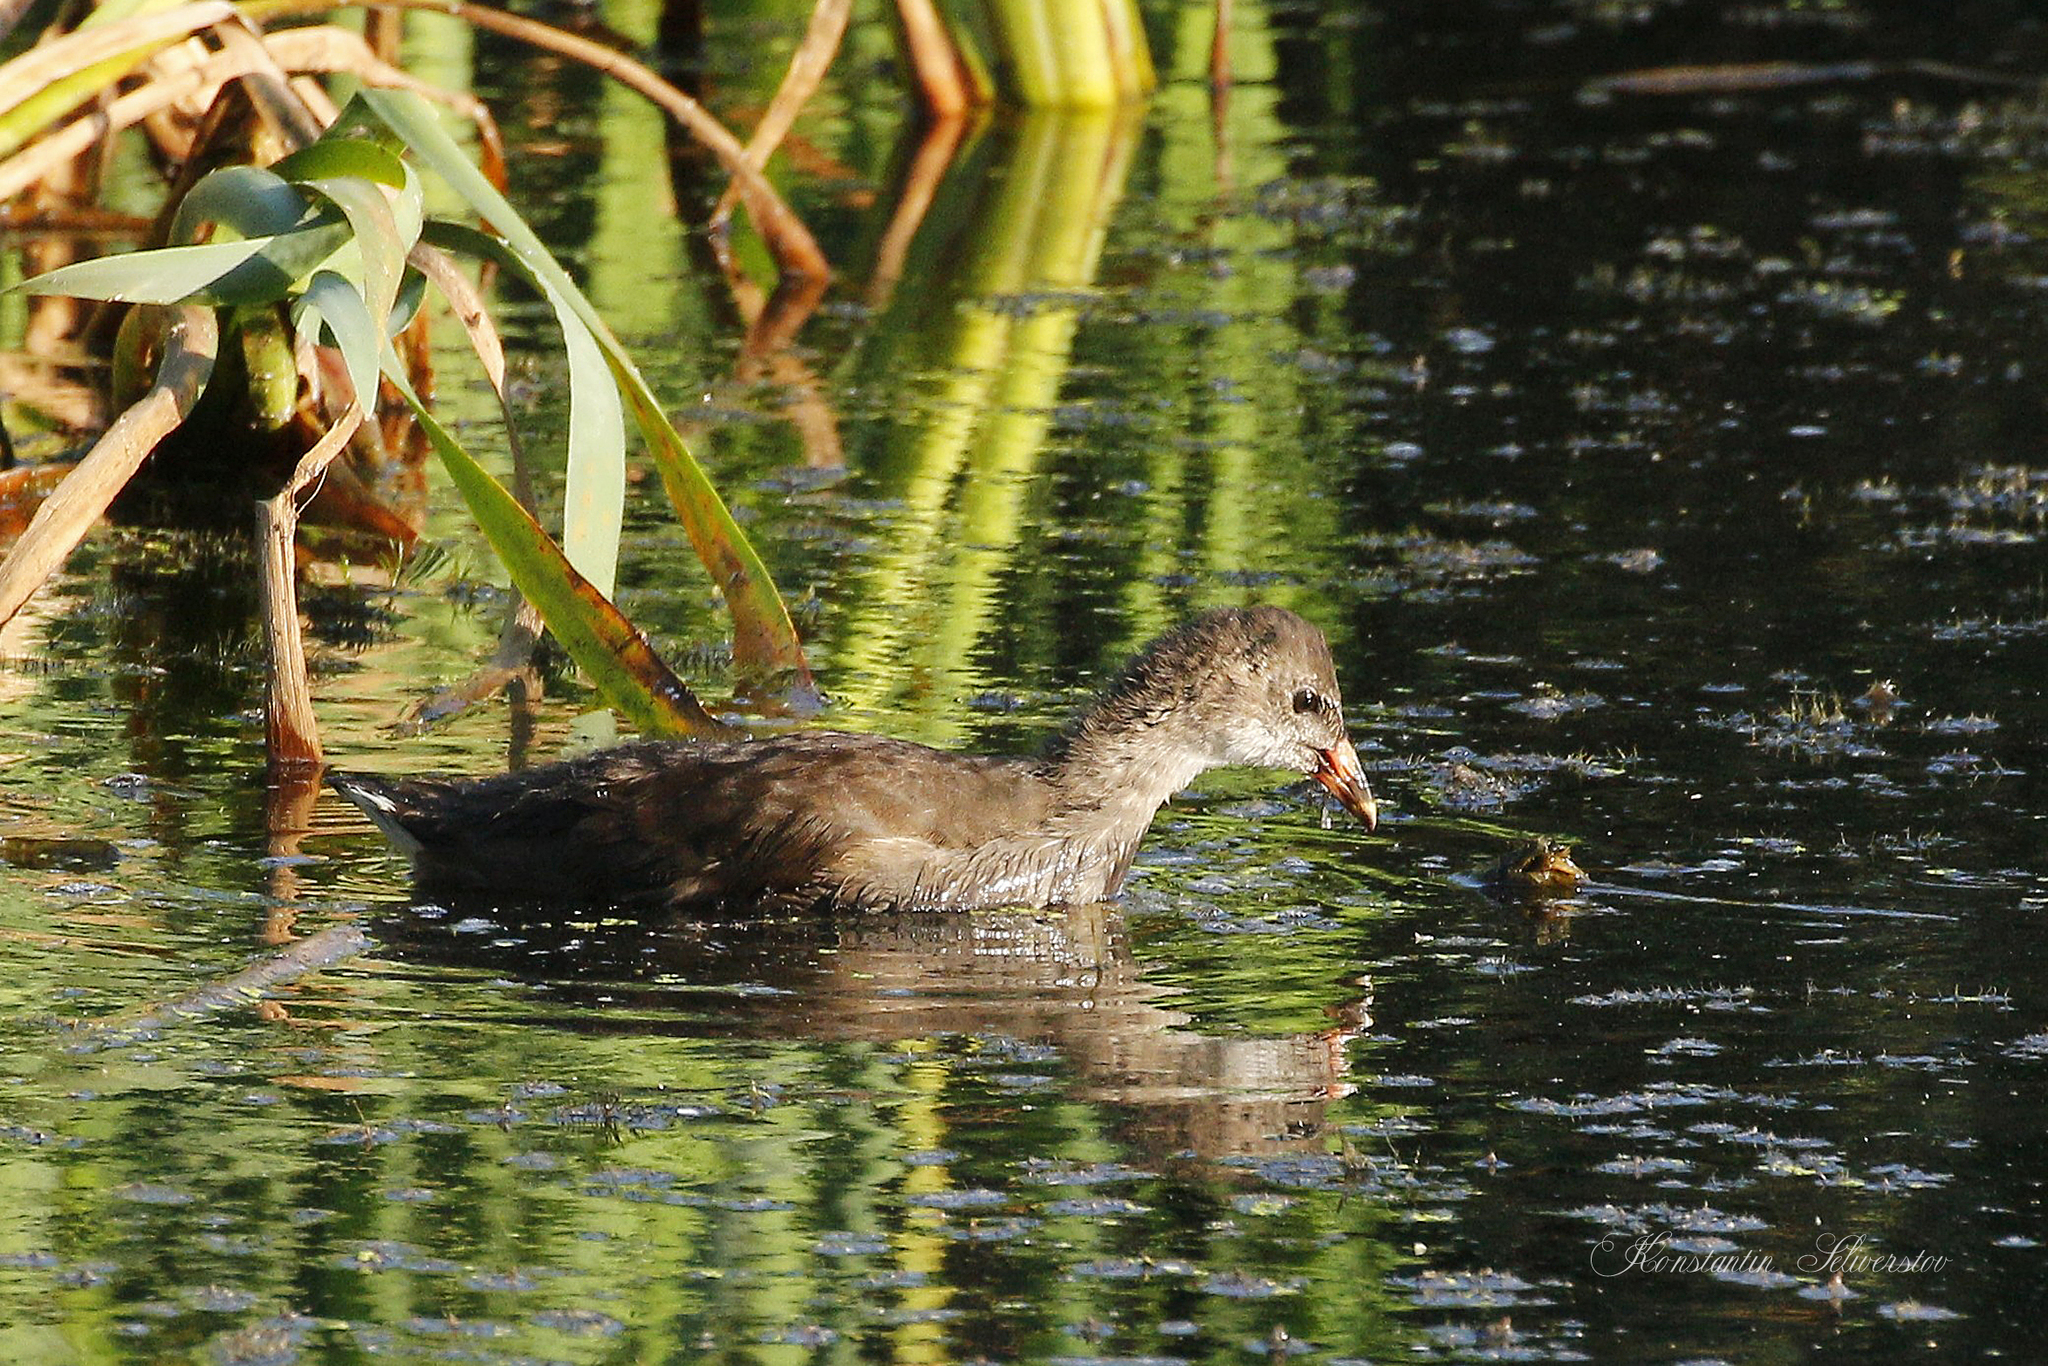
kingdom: Animalia
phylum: Chordata
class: Aves
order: Gruiformes
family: Rallidae
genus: Gallinula
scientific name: Gallinula chloropus
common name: Common moorhen
